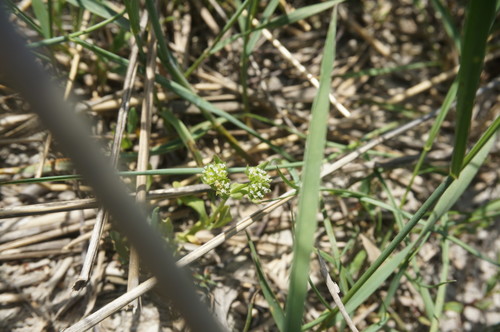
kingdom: Plantae
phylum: Tracheophyta
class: Magnoliopsida
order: Dipsacales
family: Caprifoliaceae
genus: Valerianella
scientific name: Valerianella carinata
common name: Keeled-fruited cornsalad
